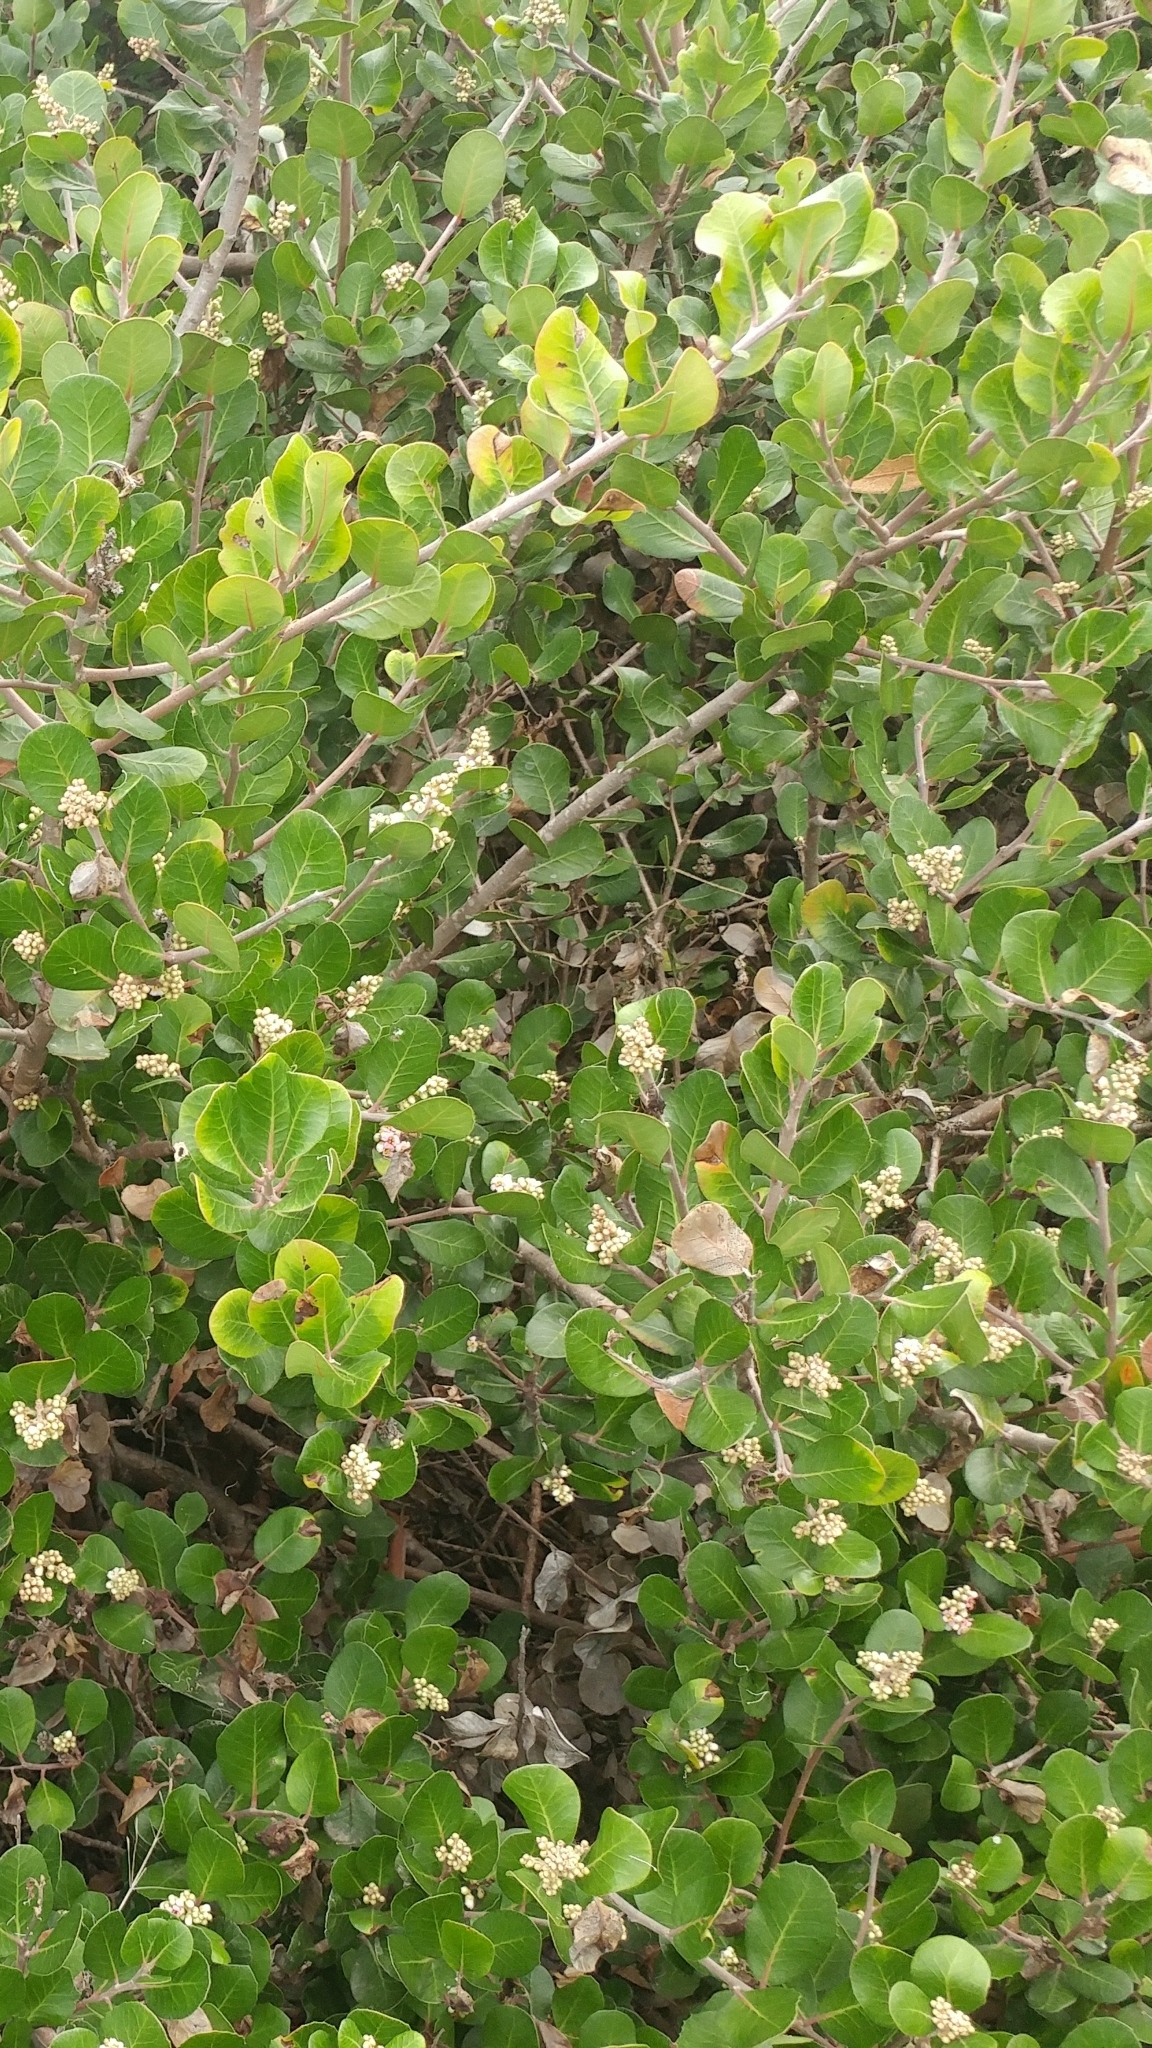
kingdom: Plantae
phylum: Tracheophyta
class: Magnoliopsida
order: Sapindales
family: Anacardiaceae
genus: Rhus
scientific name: Rhus integrifolia
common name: Lemonade sumac
